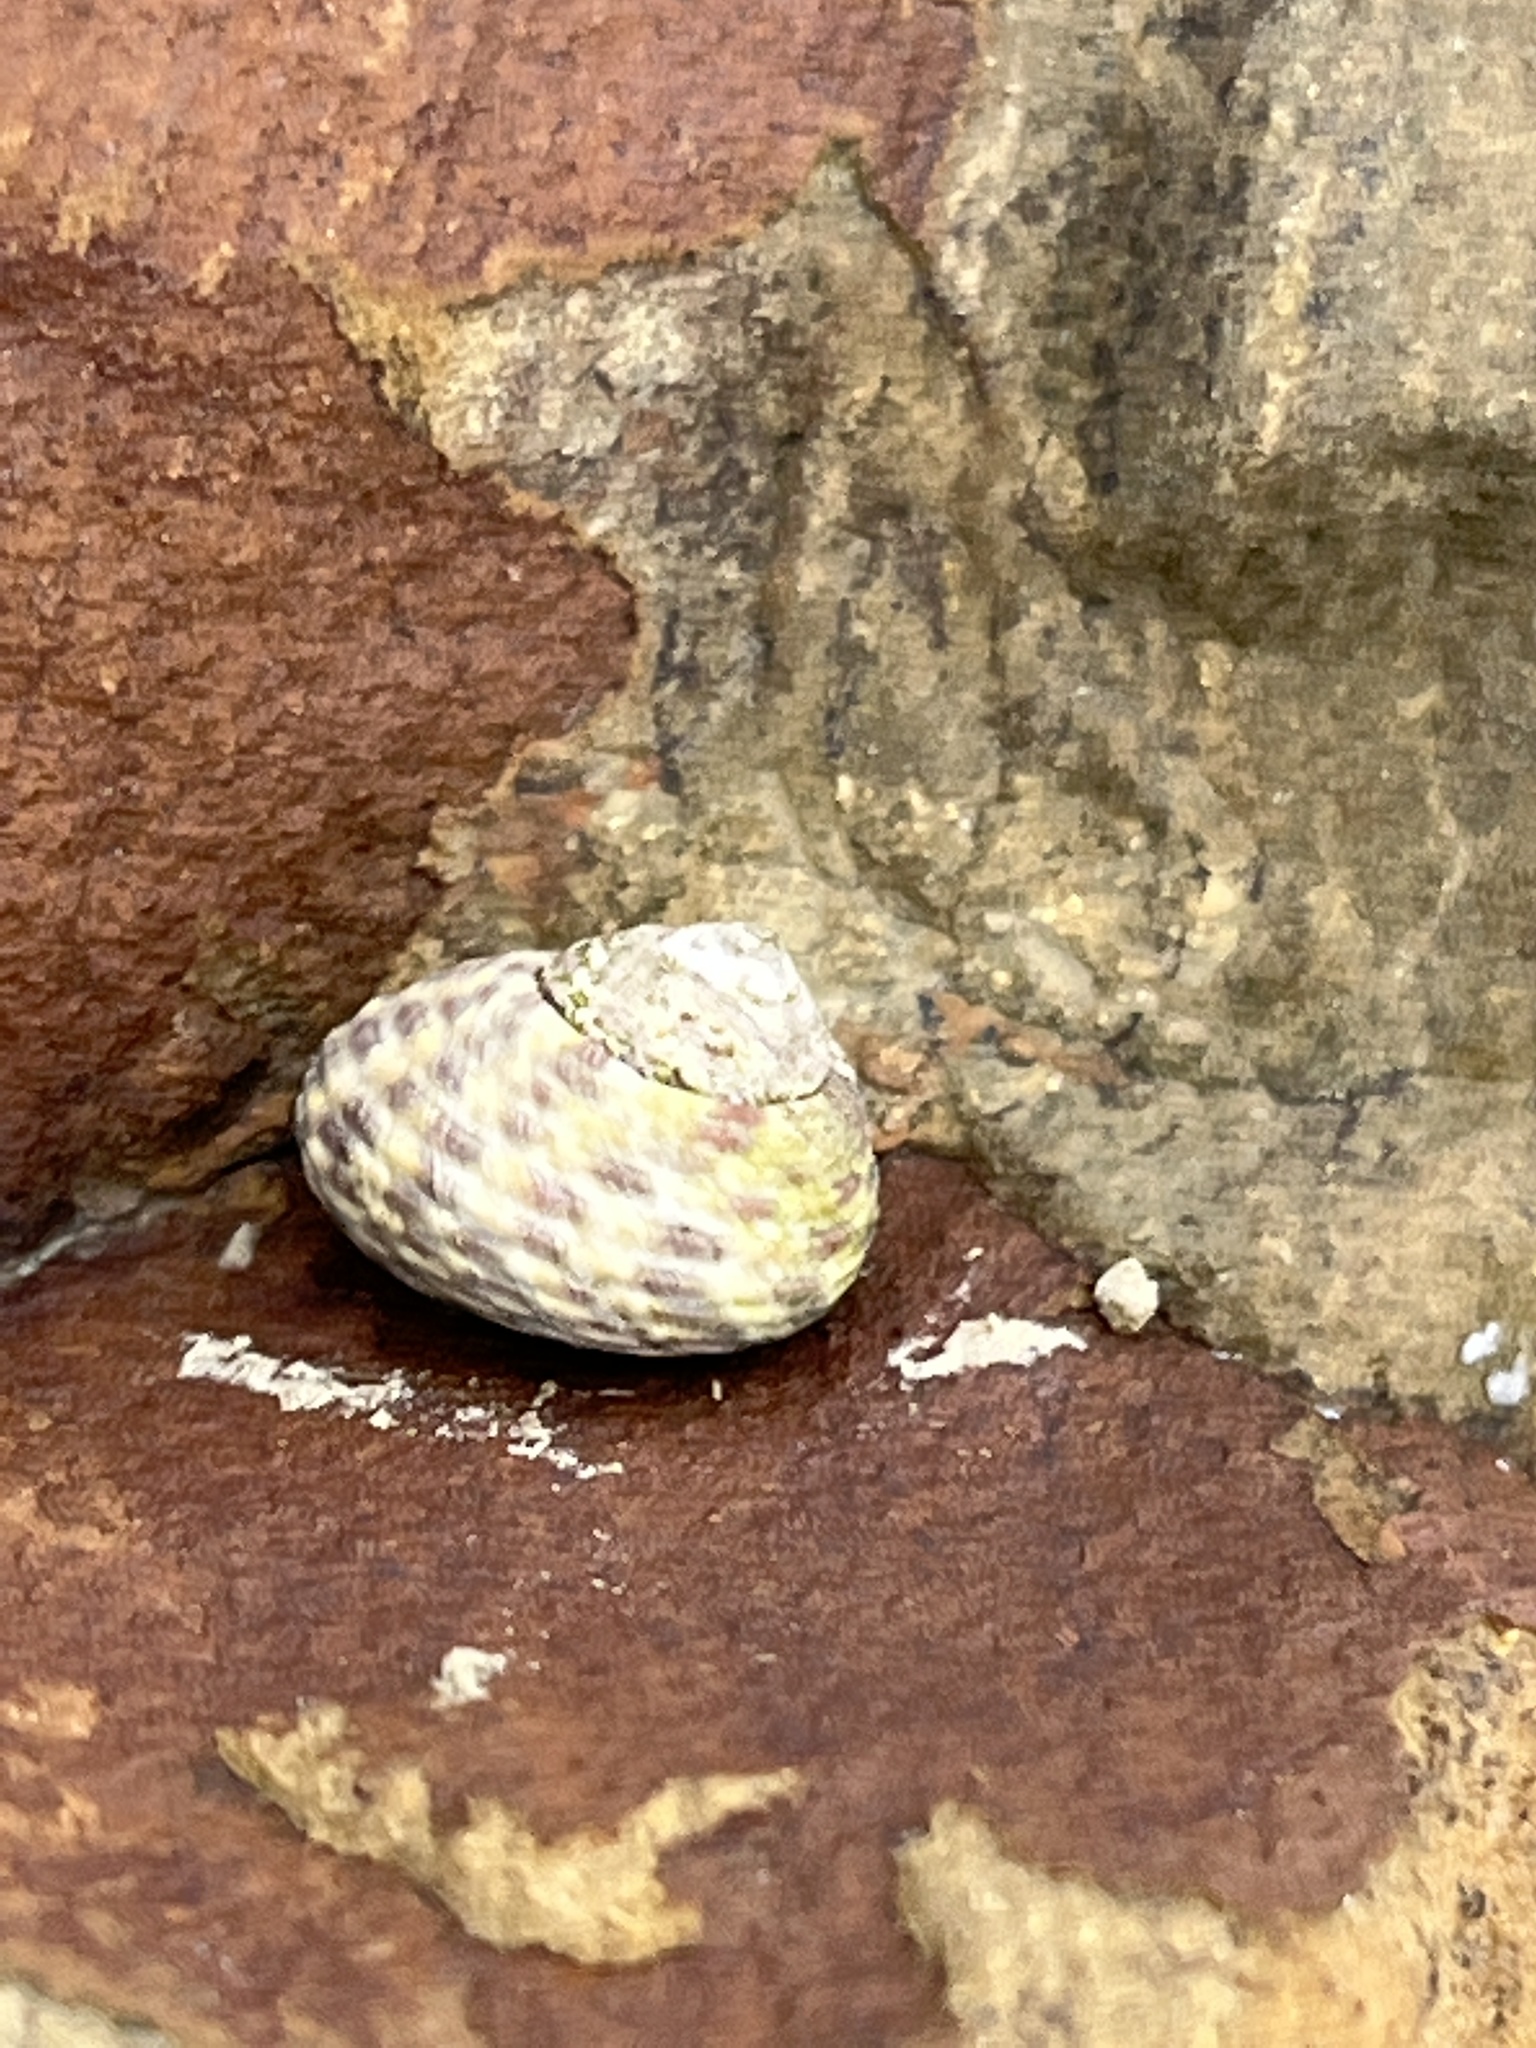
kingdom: Animalia
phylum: Mollusca
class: Gastropoda
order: Trochida
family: Trochidae
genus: Phorcus
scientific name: Phorcus turbinatus
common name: Turbinate monodont
